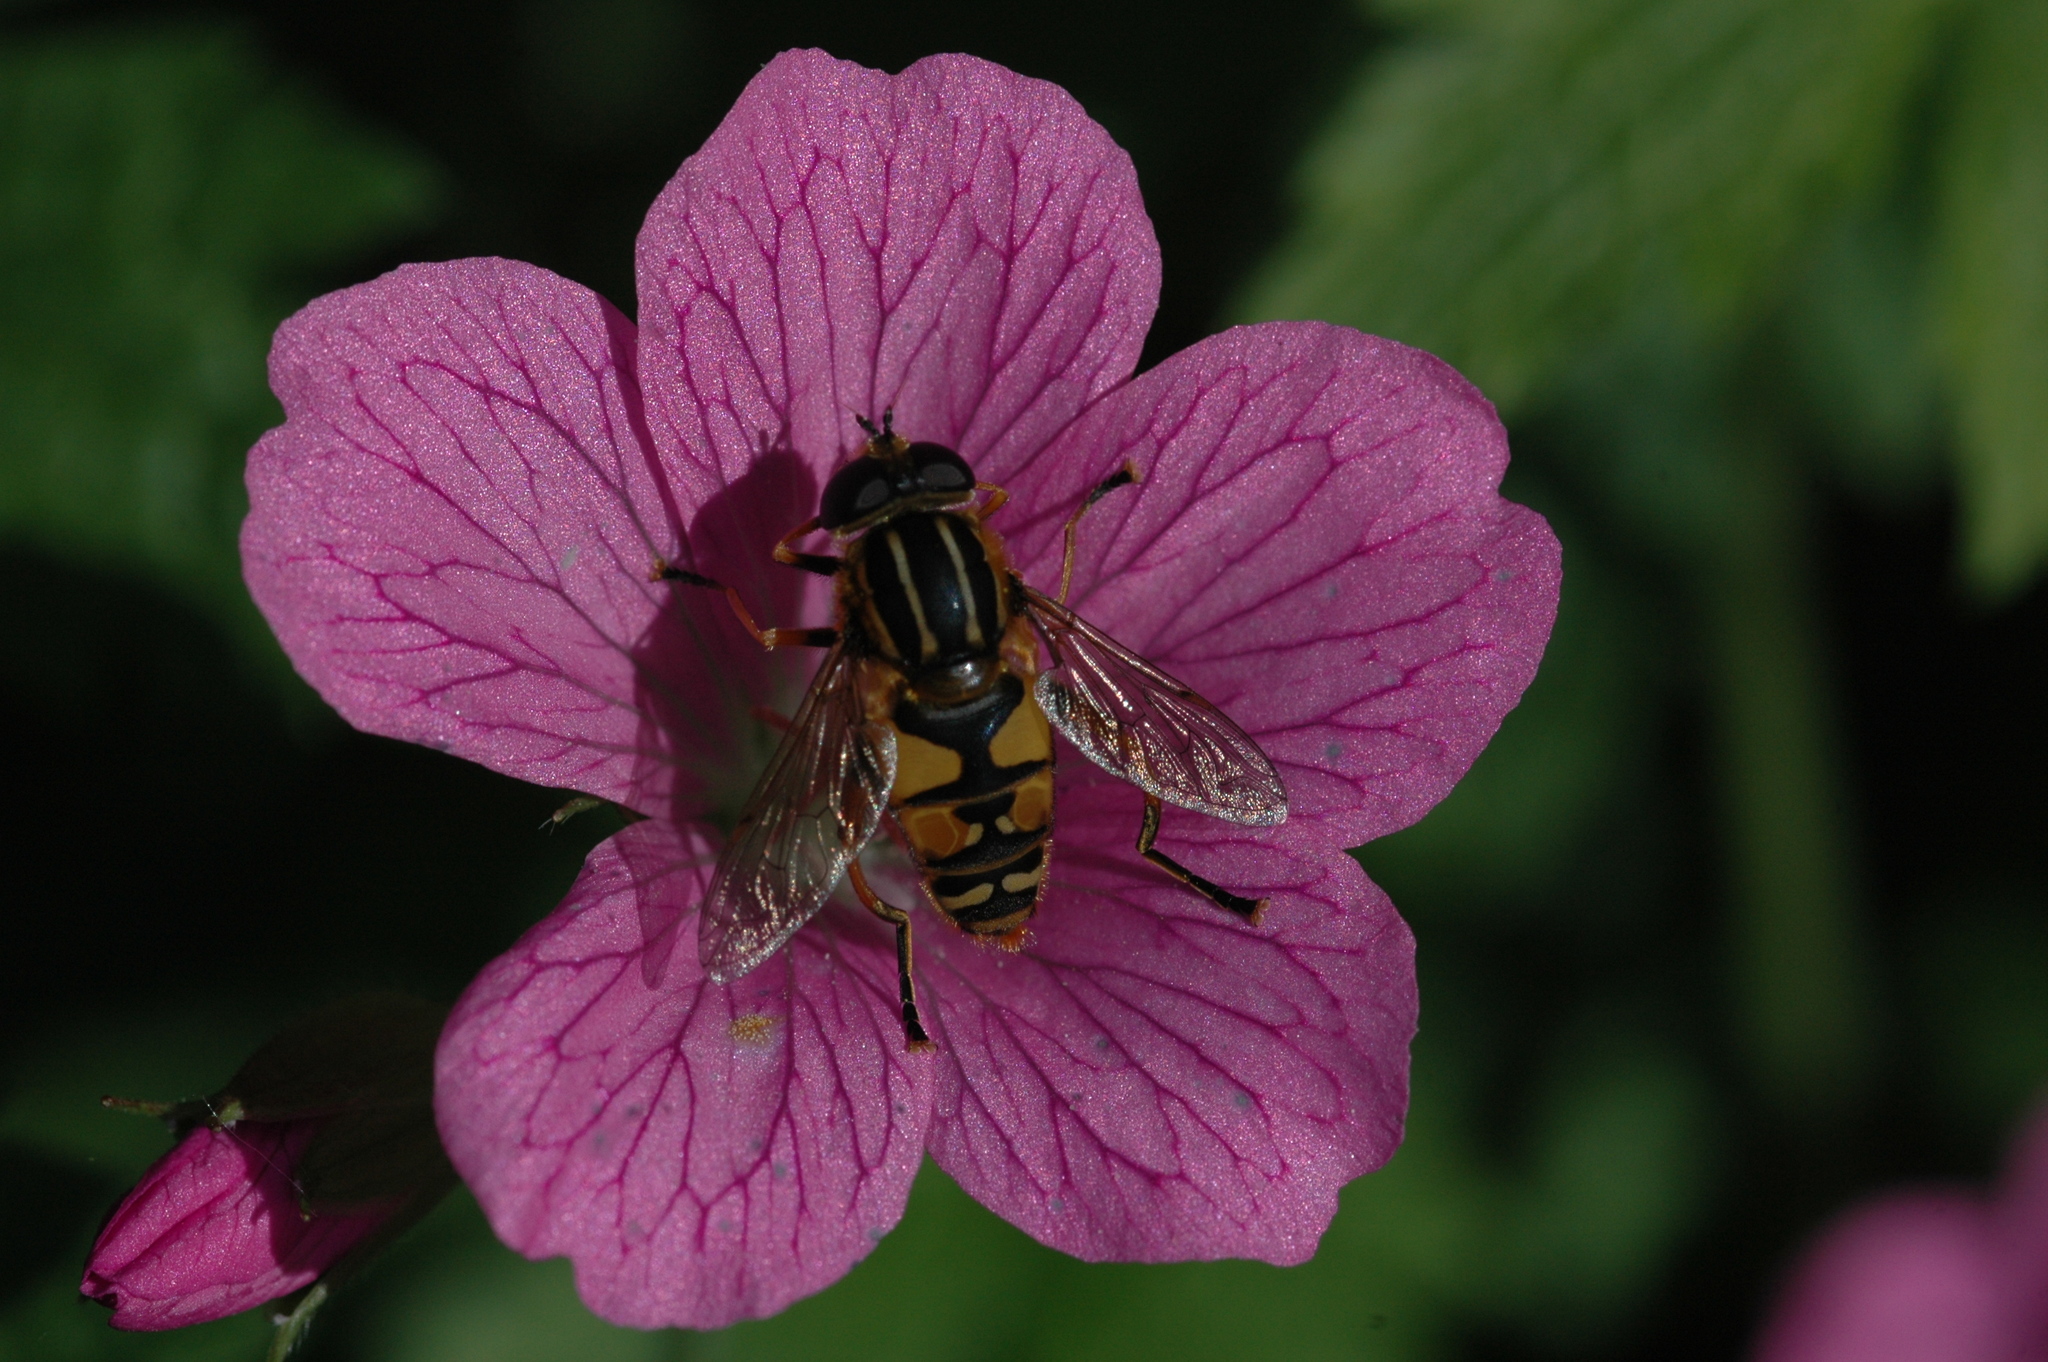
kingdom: Animalia
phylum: Arthropoda
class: Insecta
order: Diptera
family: Syrphidae
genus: Helophilus
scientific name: Helophilus pendulus
